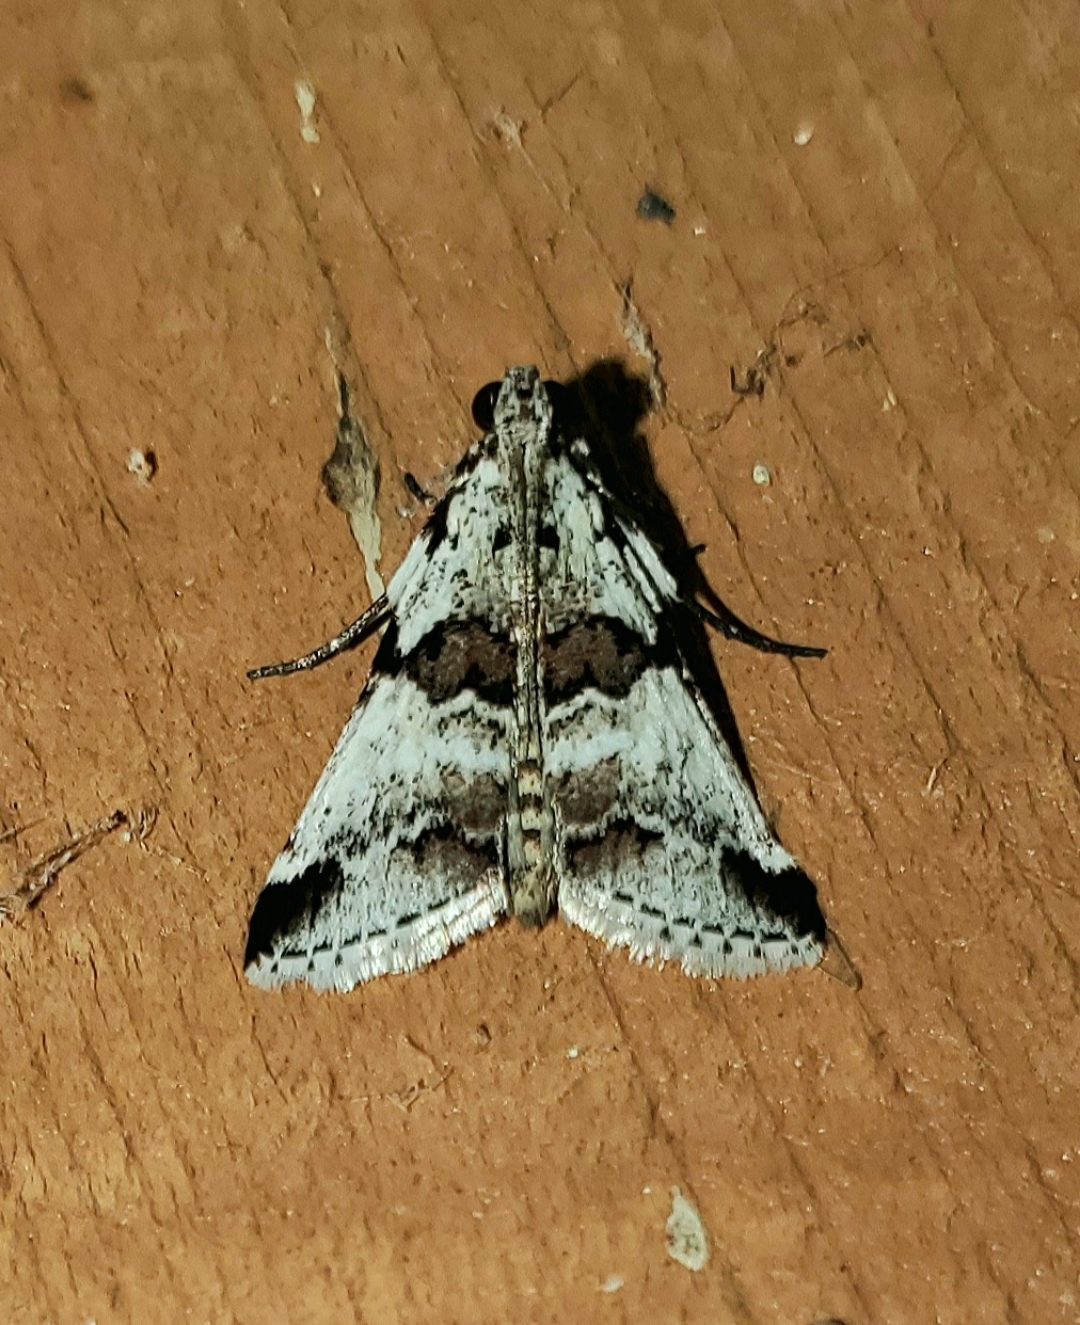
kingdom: Animalia
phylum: Arthropoda
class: Insecta
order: Lepidoptera
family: Pyralidae
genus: Tallula
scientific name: Tallula atrifascialis
